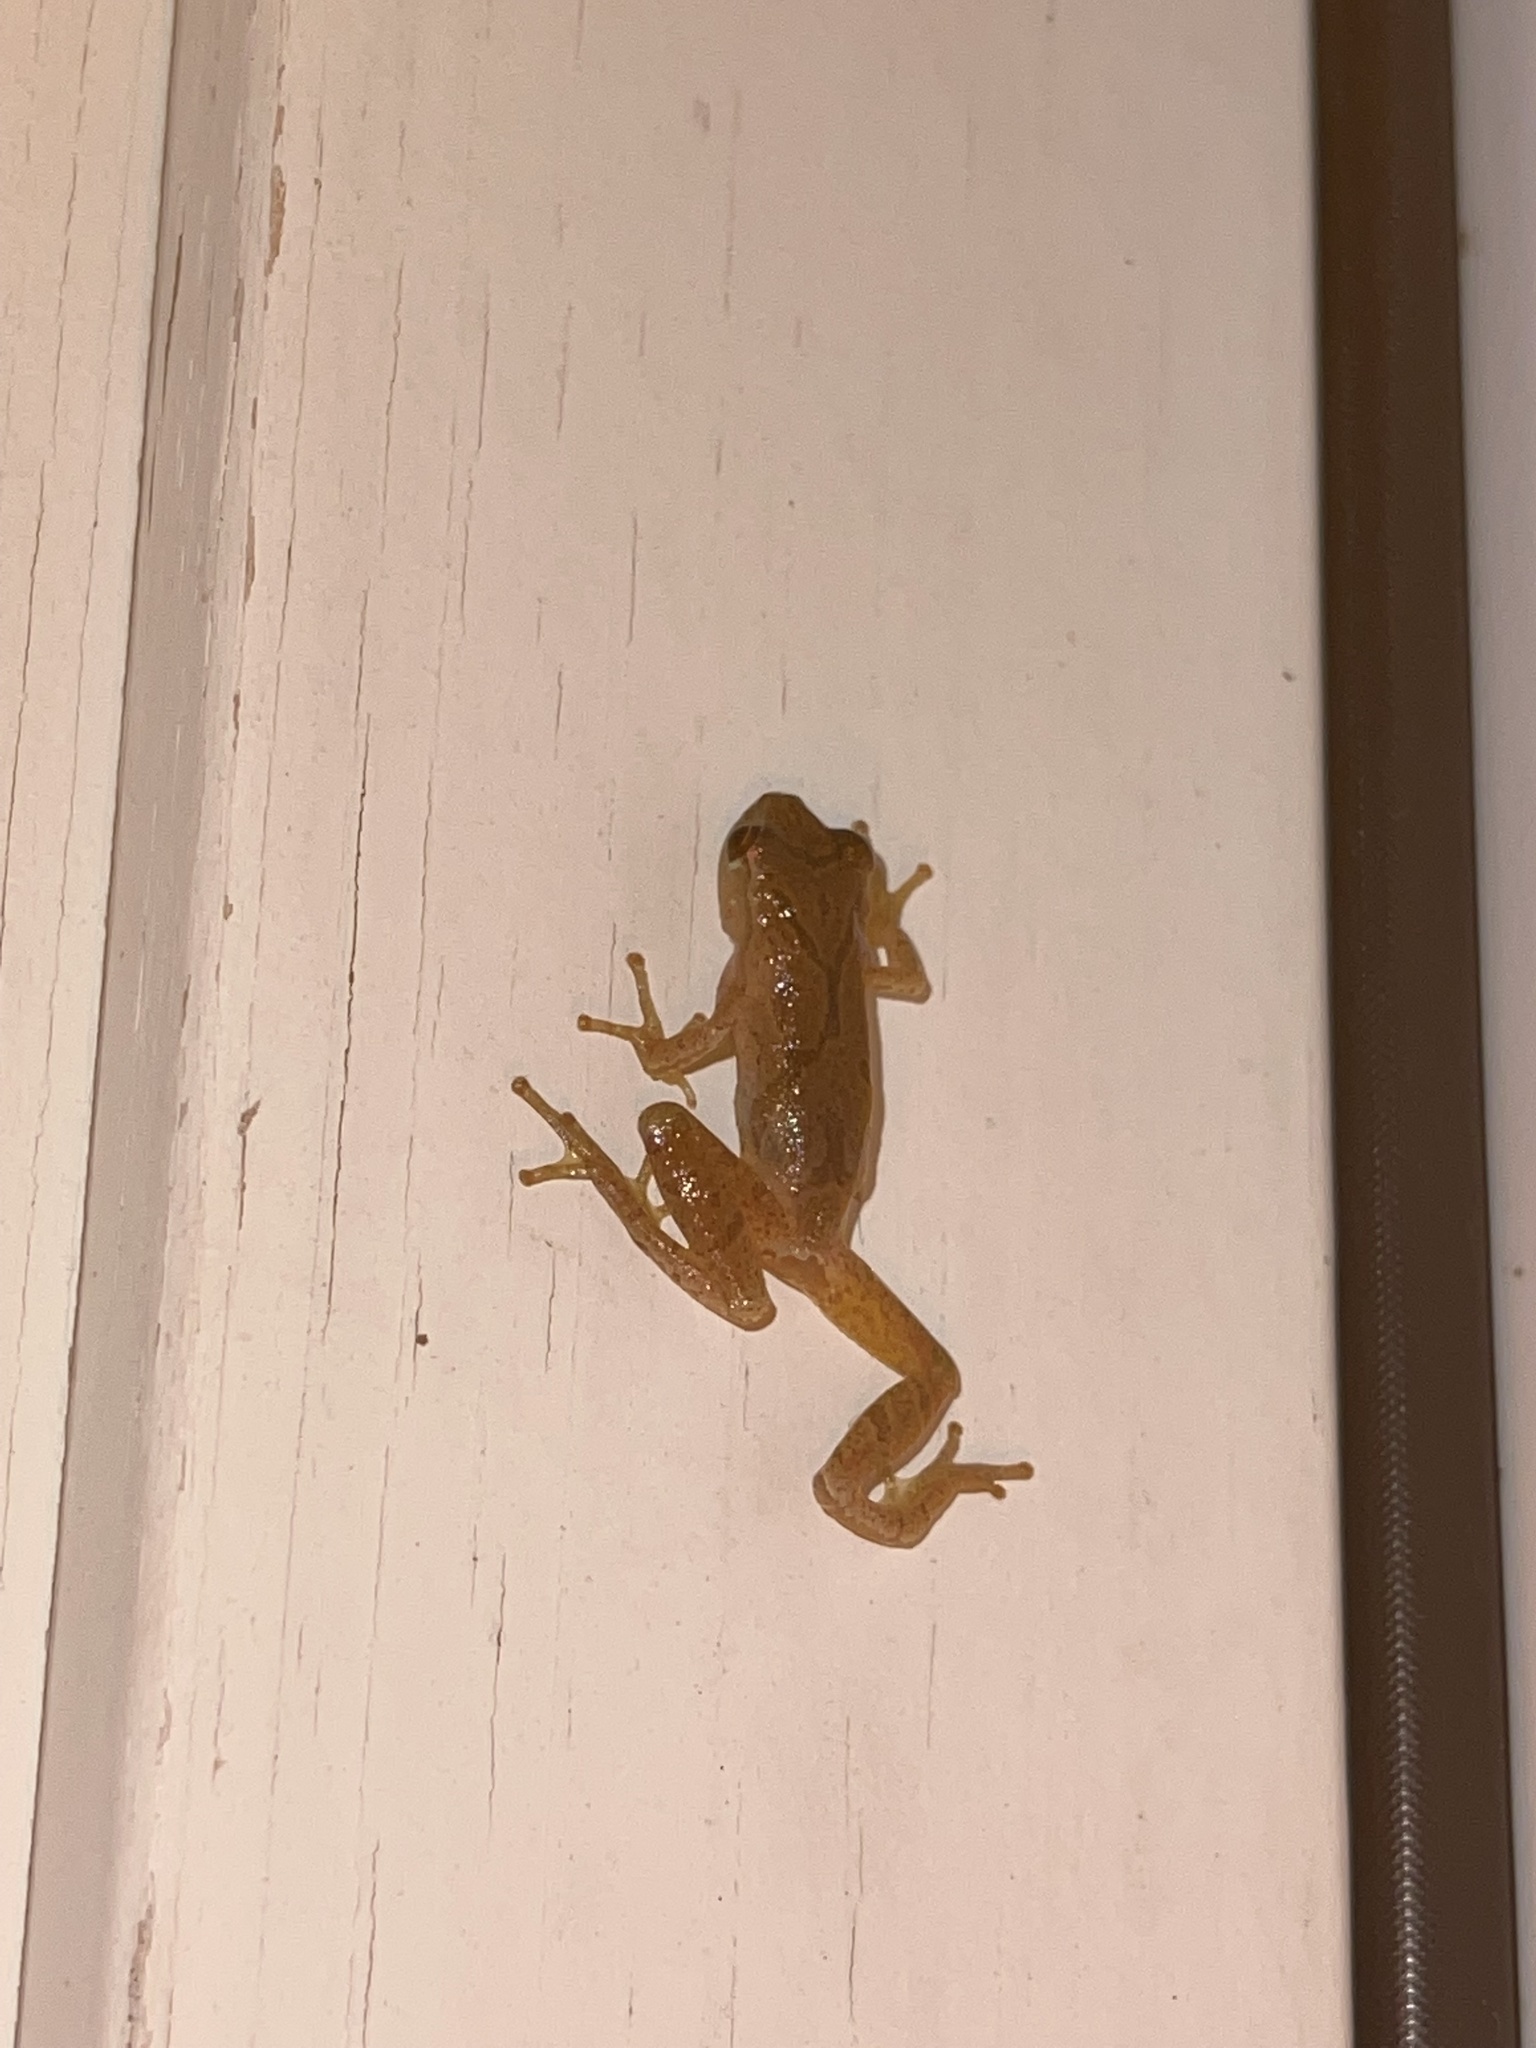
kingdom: Animalia
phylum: Chordata
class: Amphibia
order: Anura
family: Hylidae
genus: Pseudacris
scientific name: Pseudacris crucifer
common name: Spring peeper
